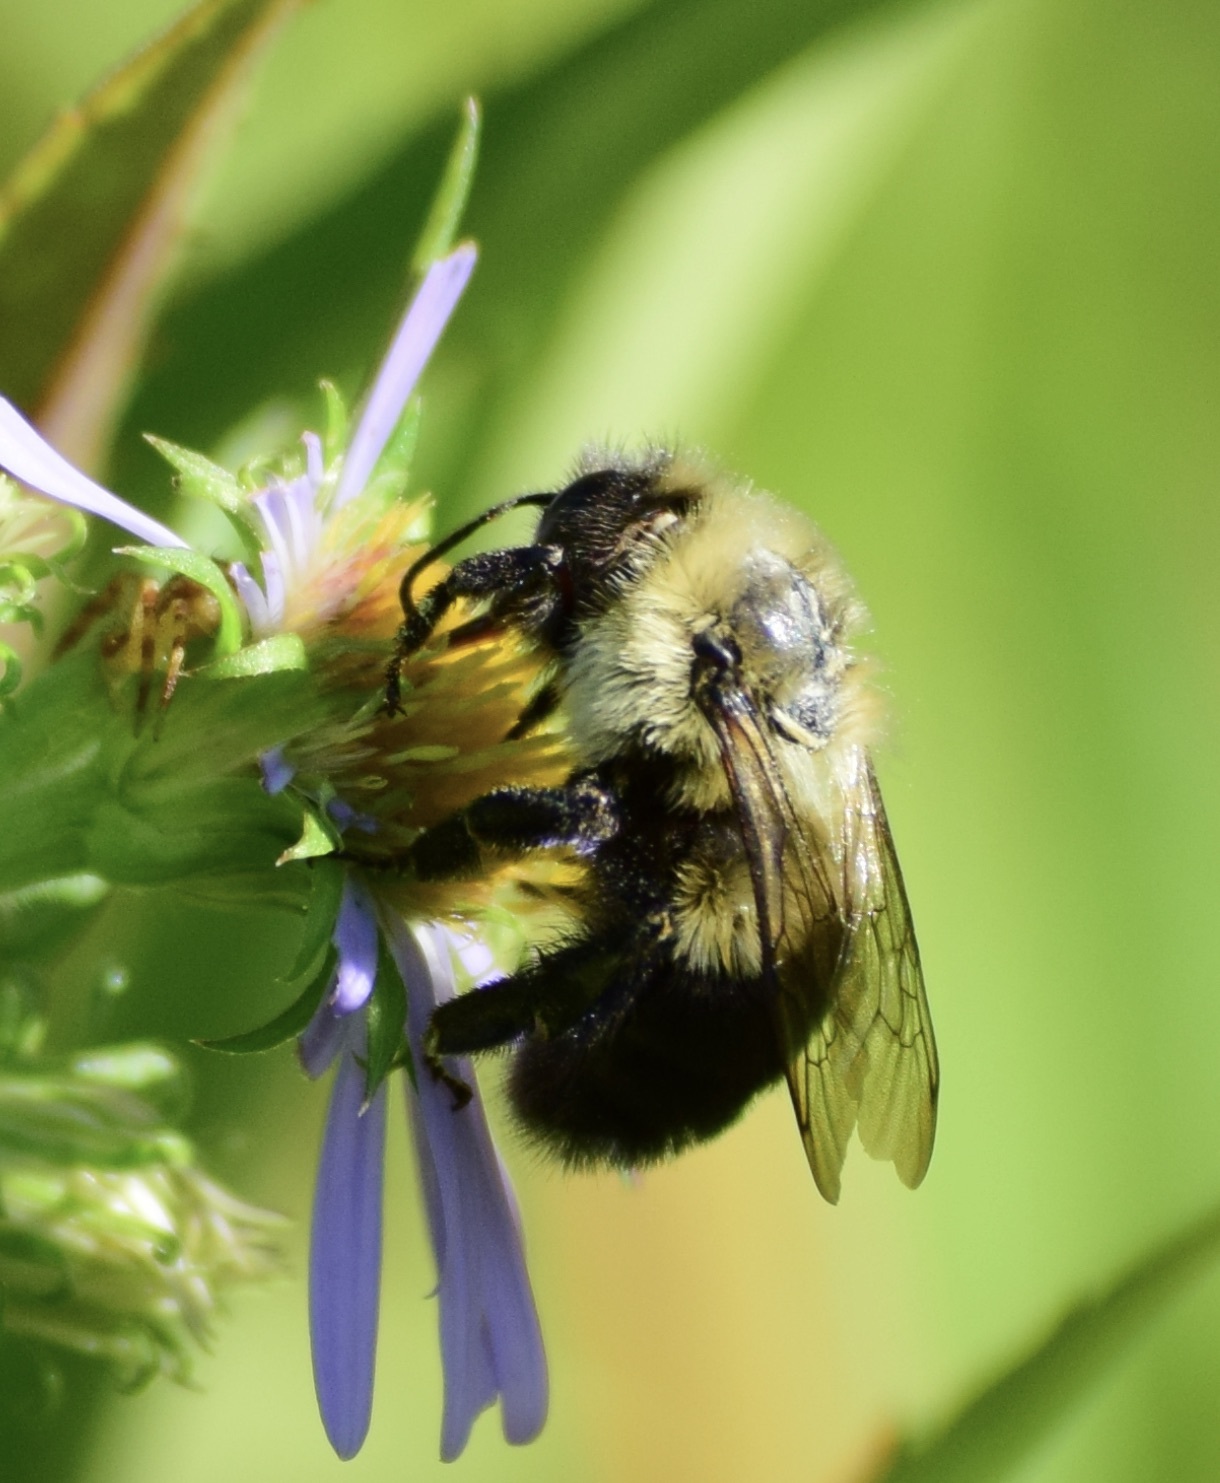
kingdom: Animalia
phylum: Arthropoda
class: Insecta
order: Hymenoptera
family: Apidae
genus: Bombus
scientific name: Bombus impatiens
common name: Common eastern bumble bee
